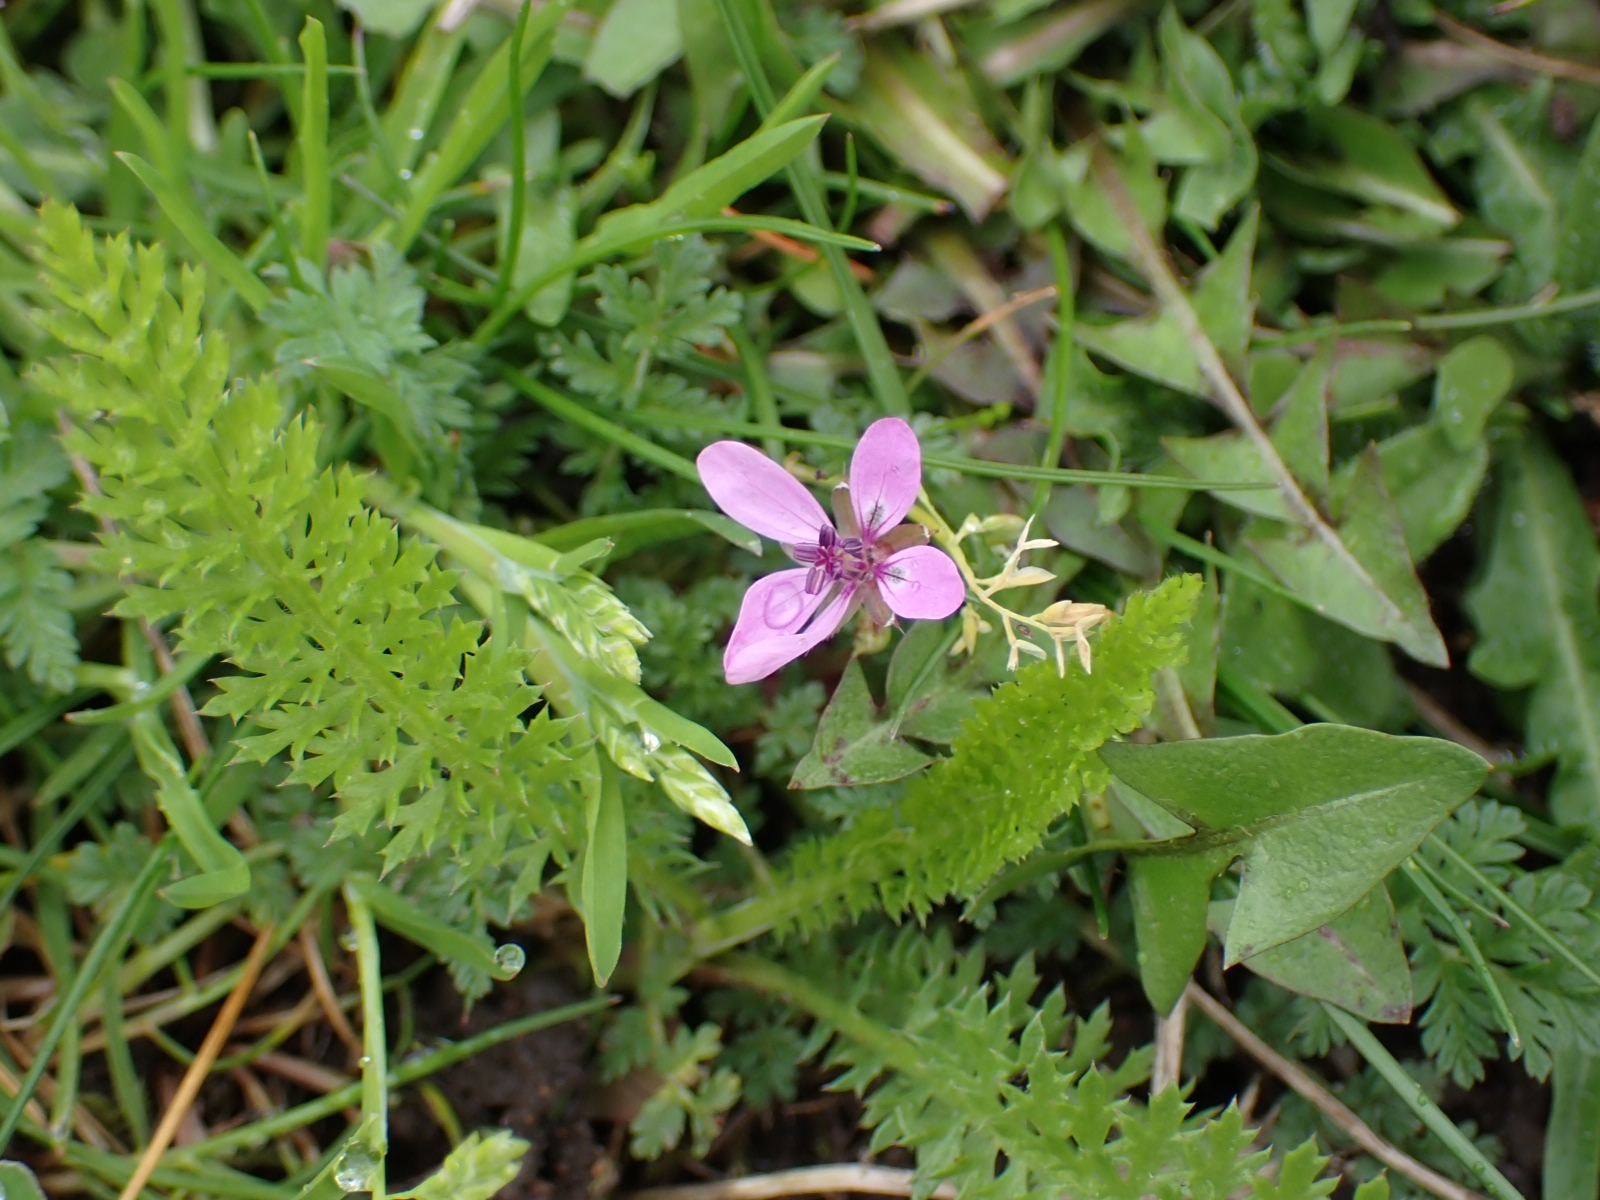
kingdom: Plantae
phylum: Tracheophyta
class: Magnoliopsida
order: Geraniales
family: Geraniaceae
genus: Erodium
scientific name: Erodium cicutarium
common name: Common stork's-bill
